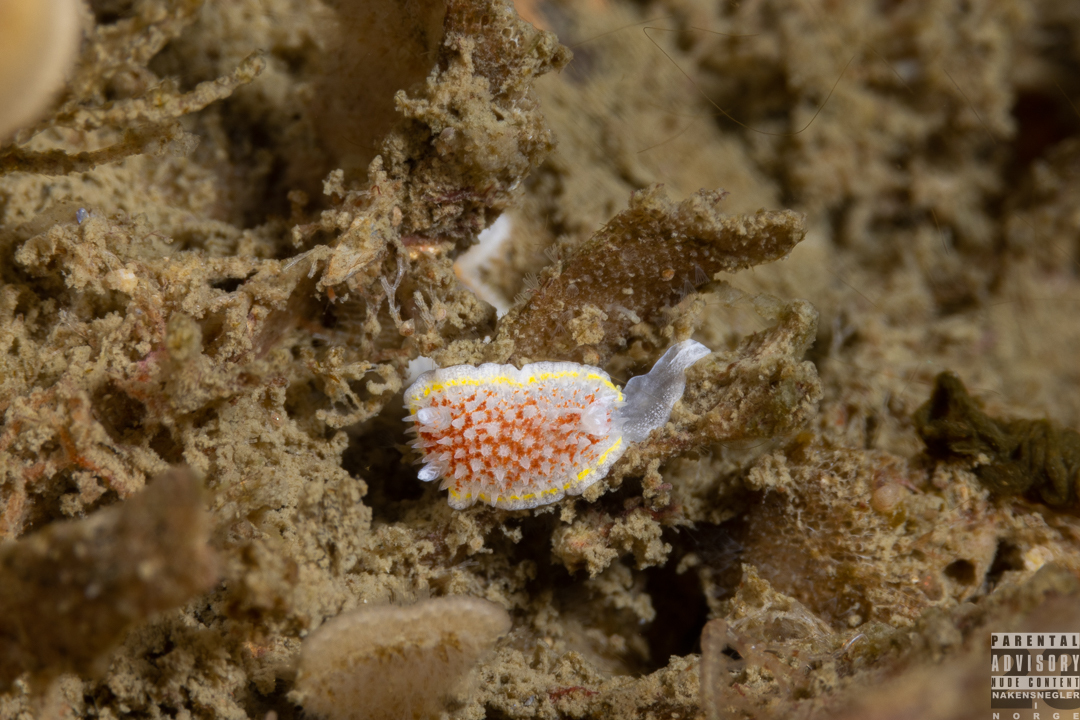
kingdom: Animalia
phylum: Mollusca
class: Gastropoda
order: Nudibranchia
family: Calycidorididae
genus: Diaphorodoris
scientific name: Diaphorodoris luteocincta
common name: Fried egg nudibranch
